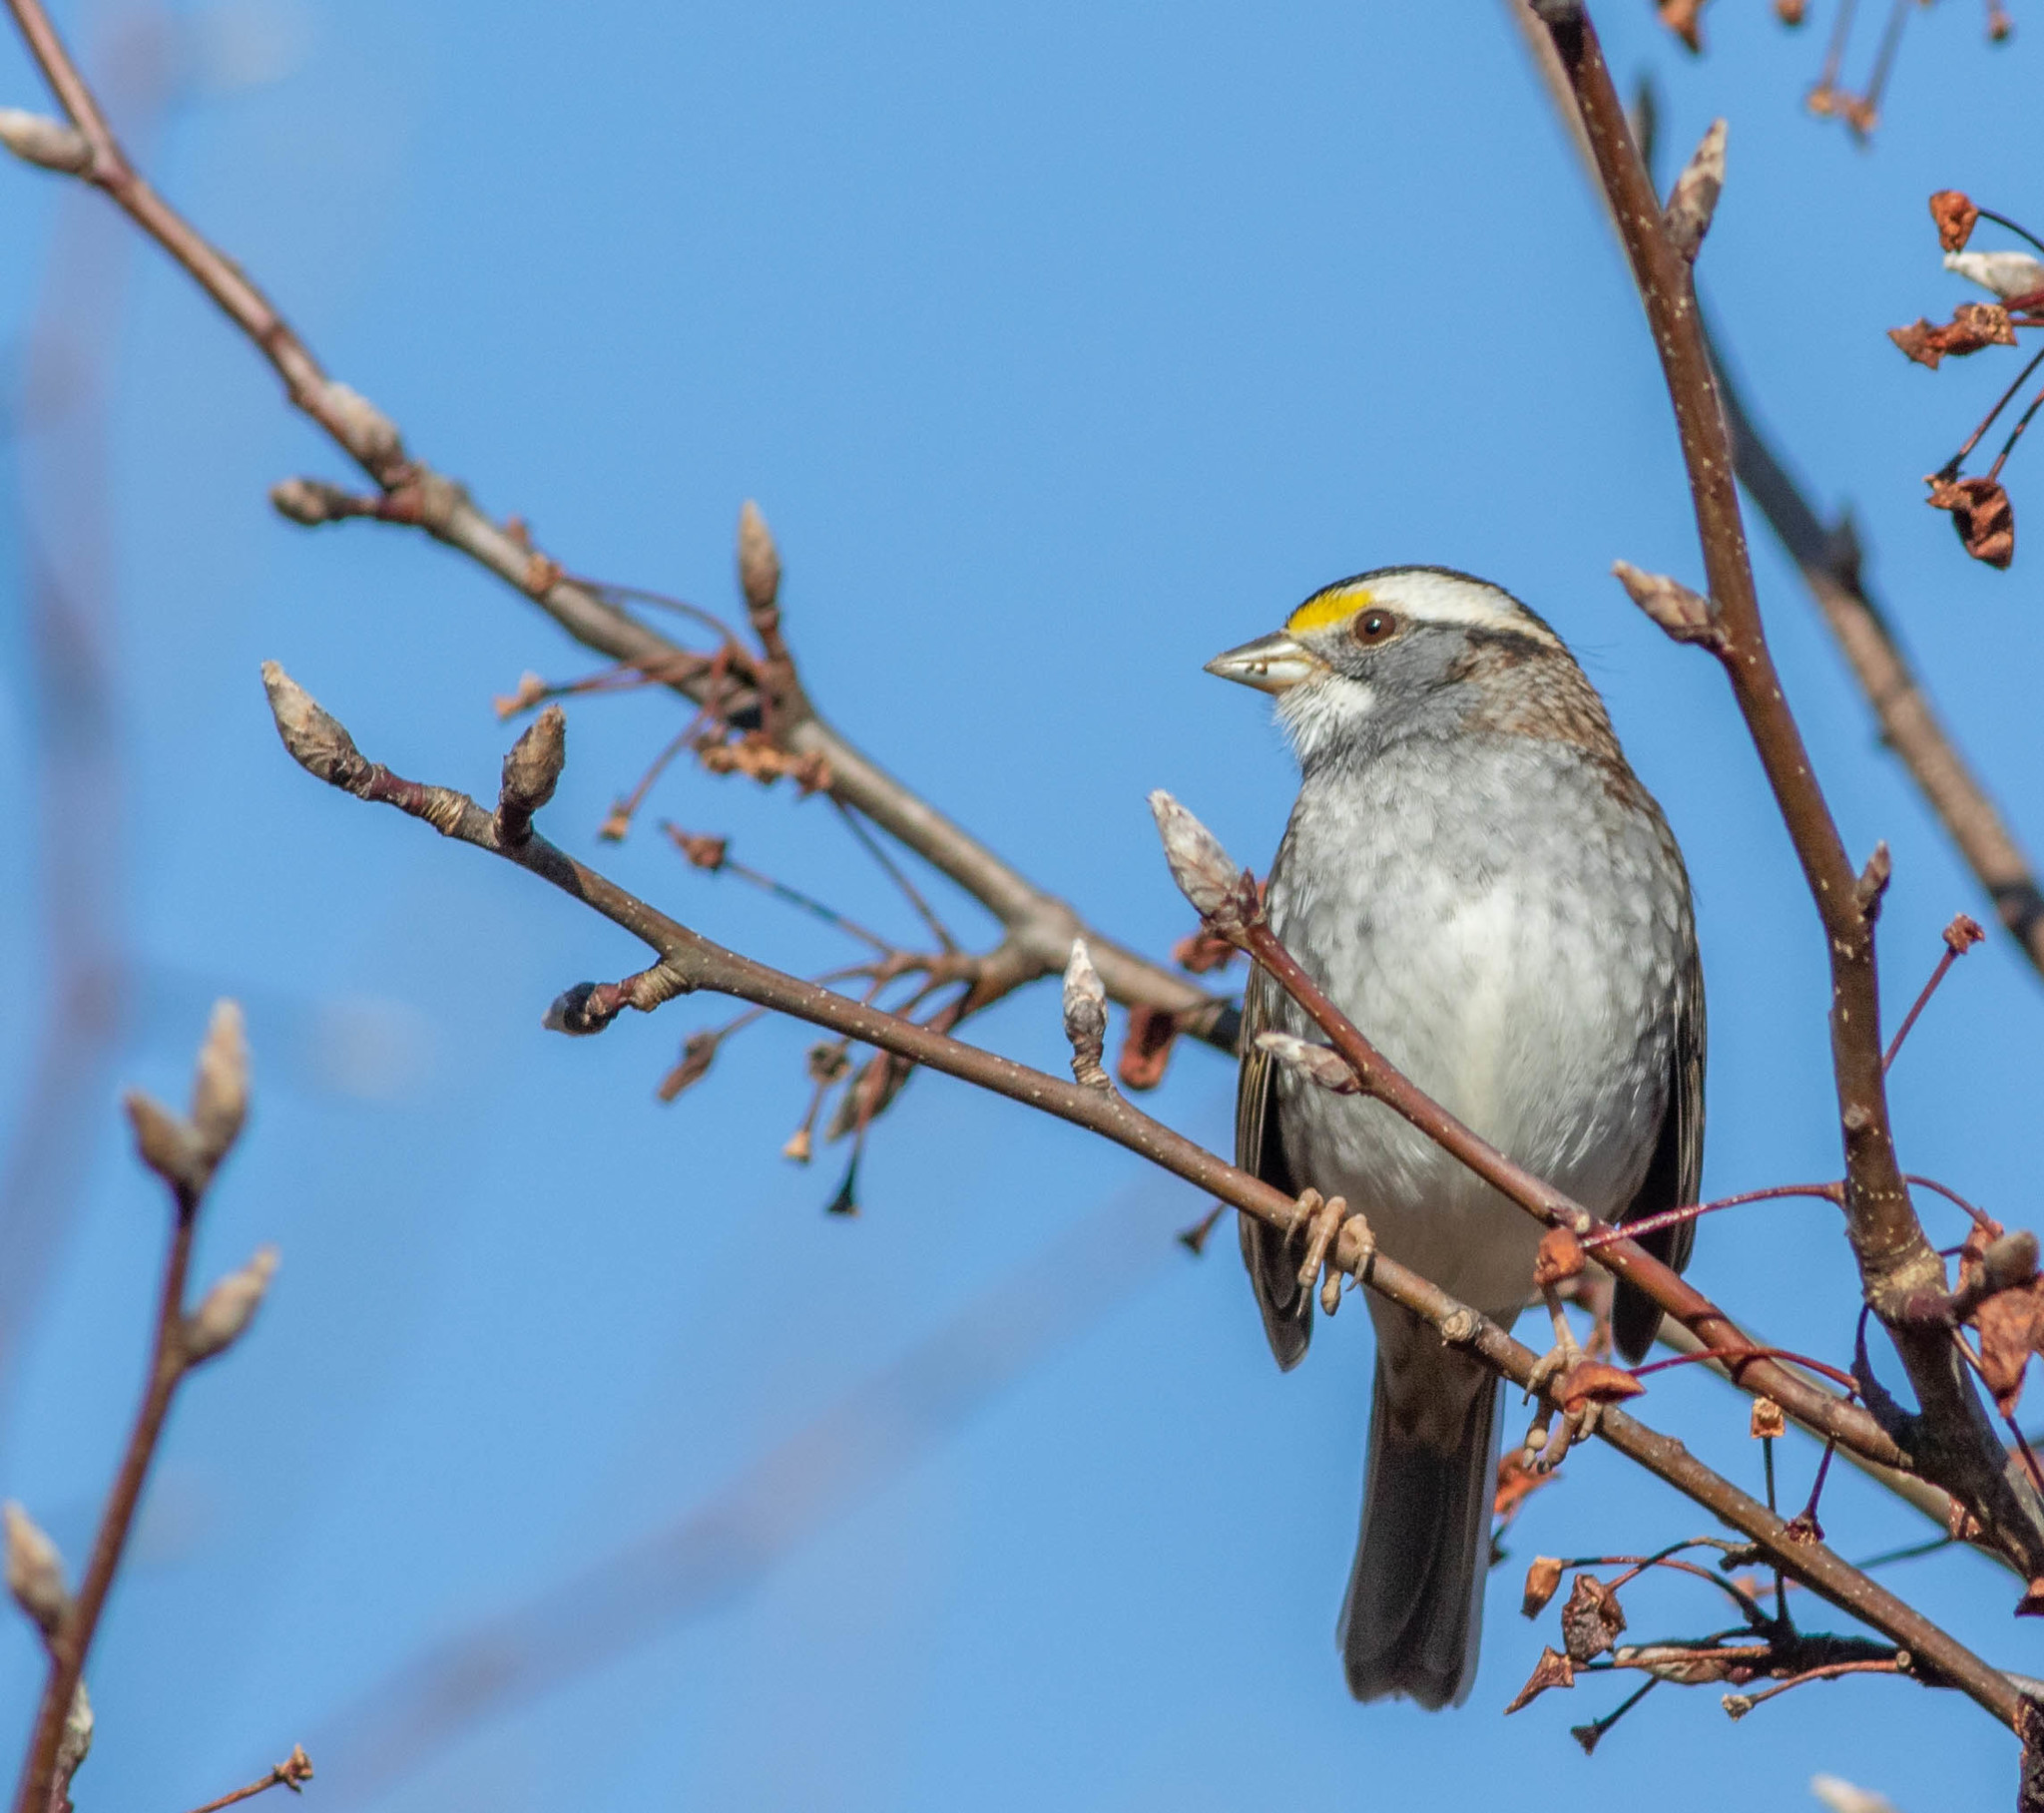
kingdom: Animalia
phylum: Chordata
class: Aves
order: Passeriformes
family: Passerellidae
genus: Zonotrichia
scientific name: Zonotrichia albicollis
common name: White-throated sparrow
